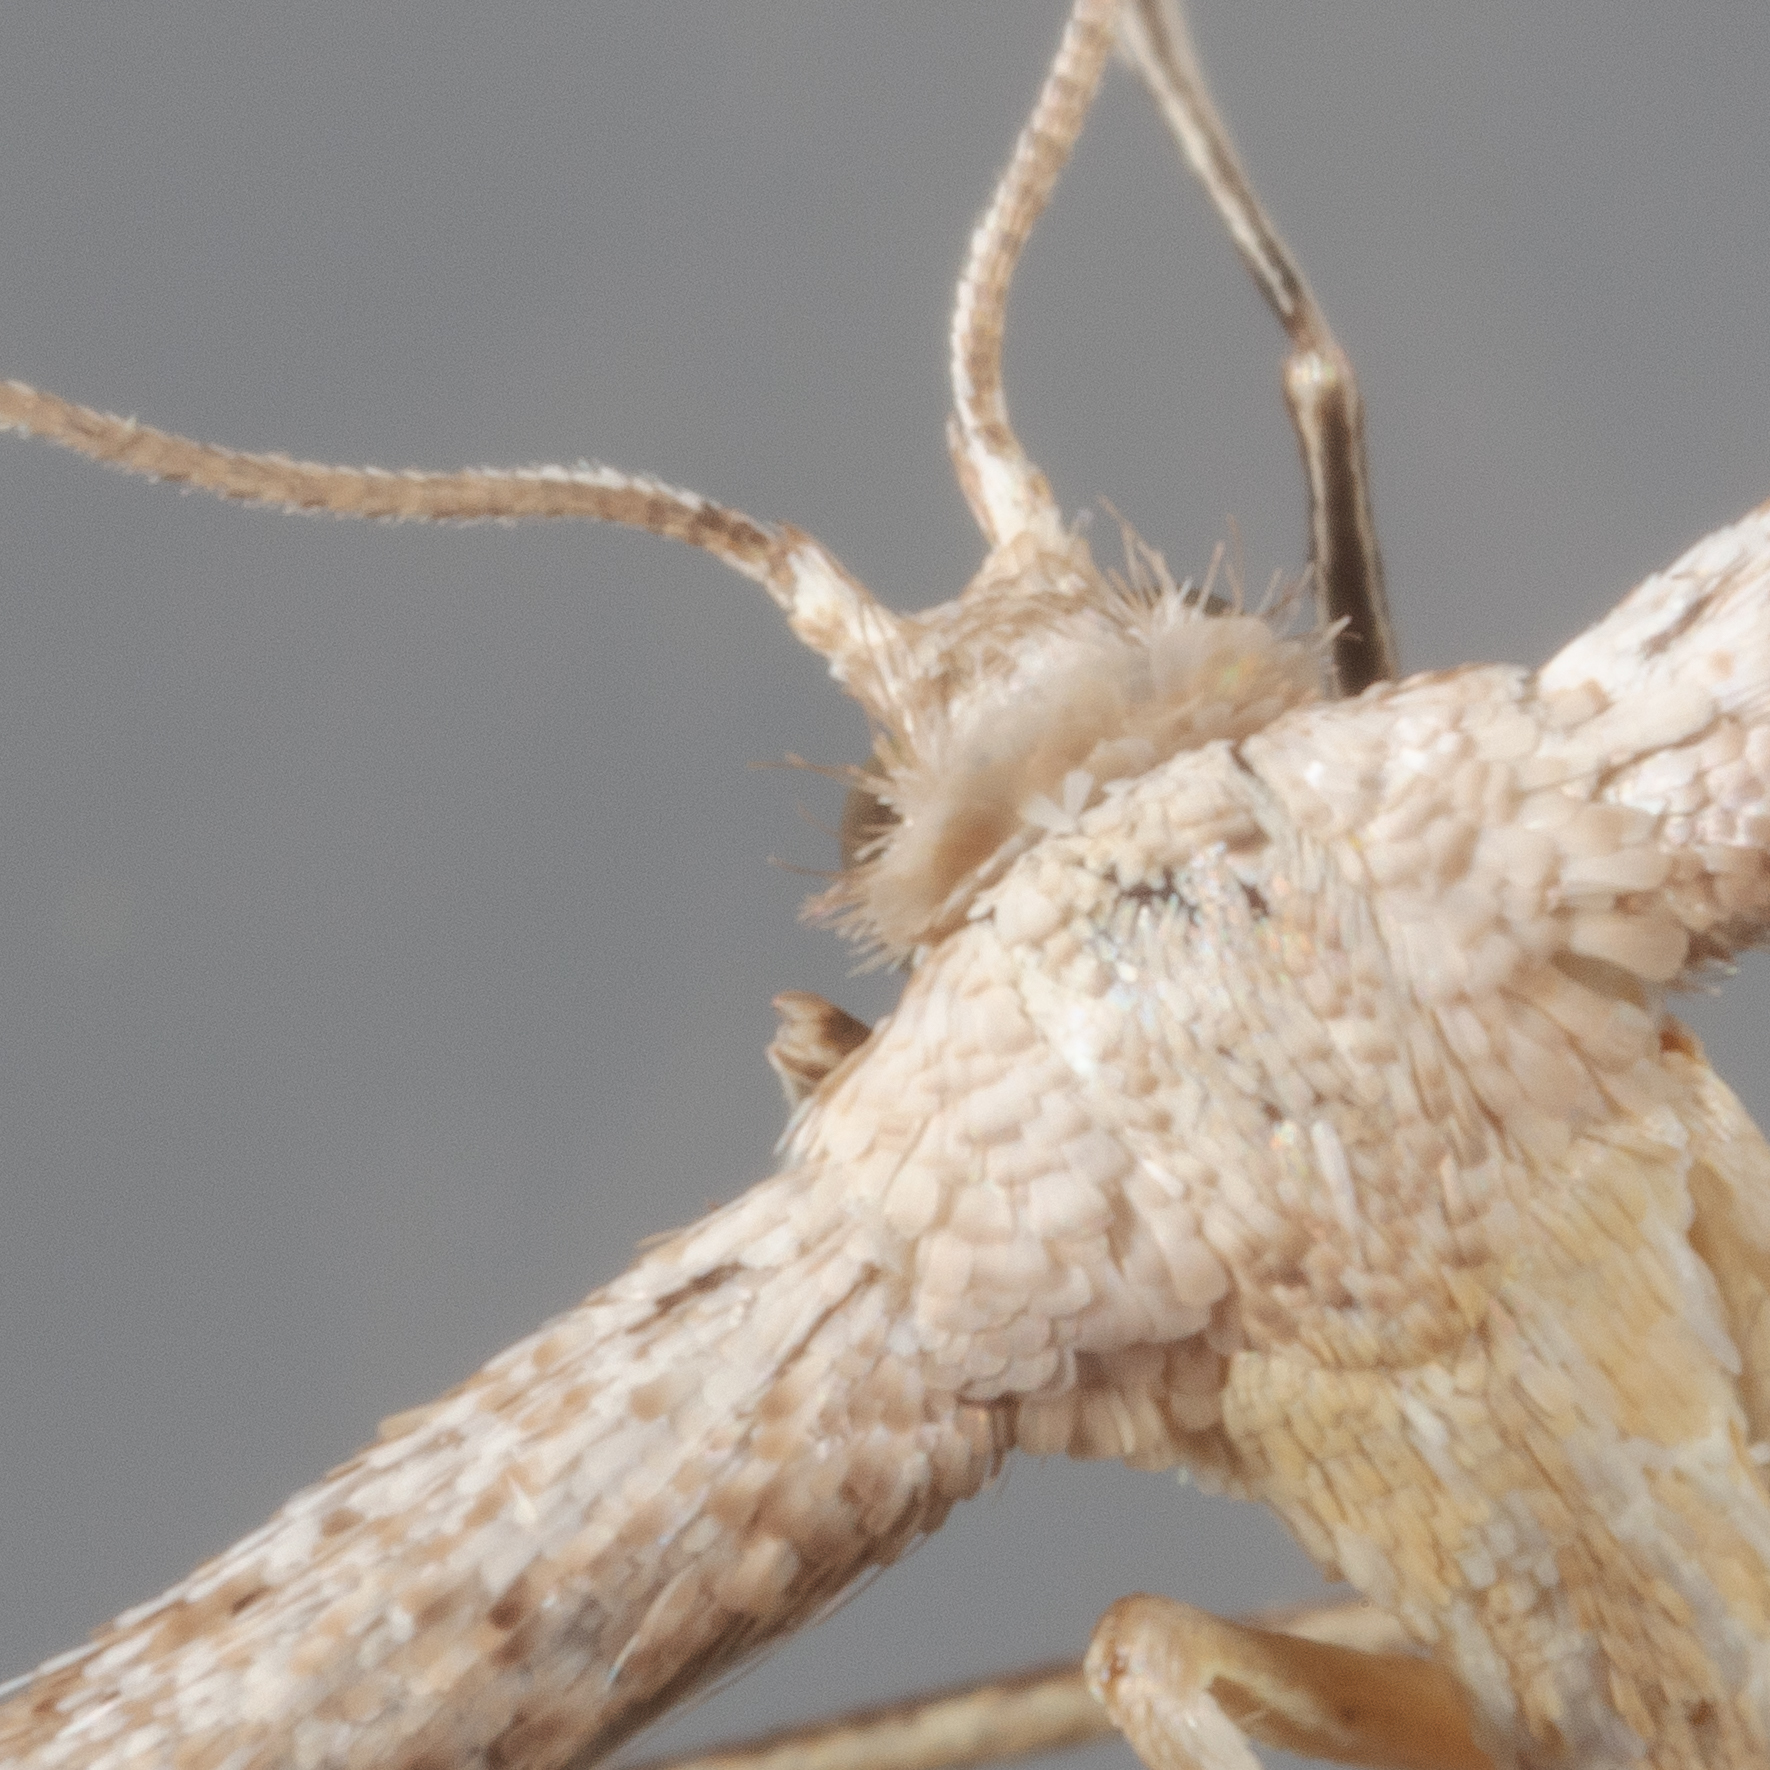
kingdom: Animalia
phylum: Arthropoda
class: Insecta
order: Lepidoptera
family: Pterophoridae
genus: Pselnophorus
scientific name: Pselnophorus belfragei
